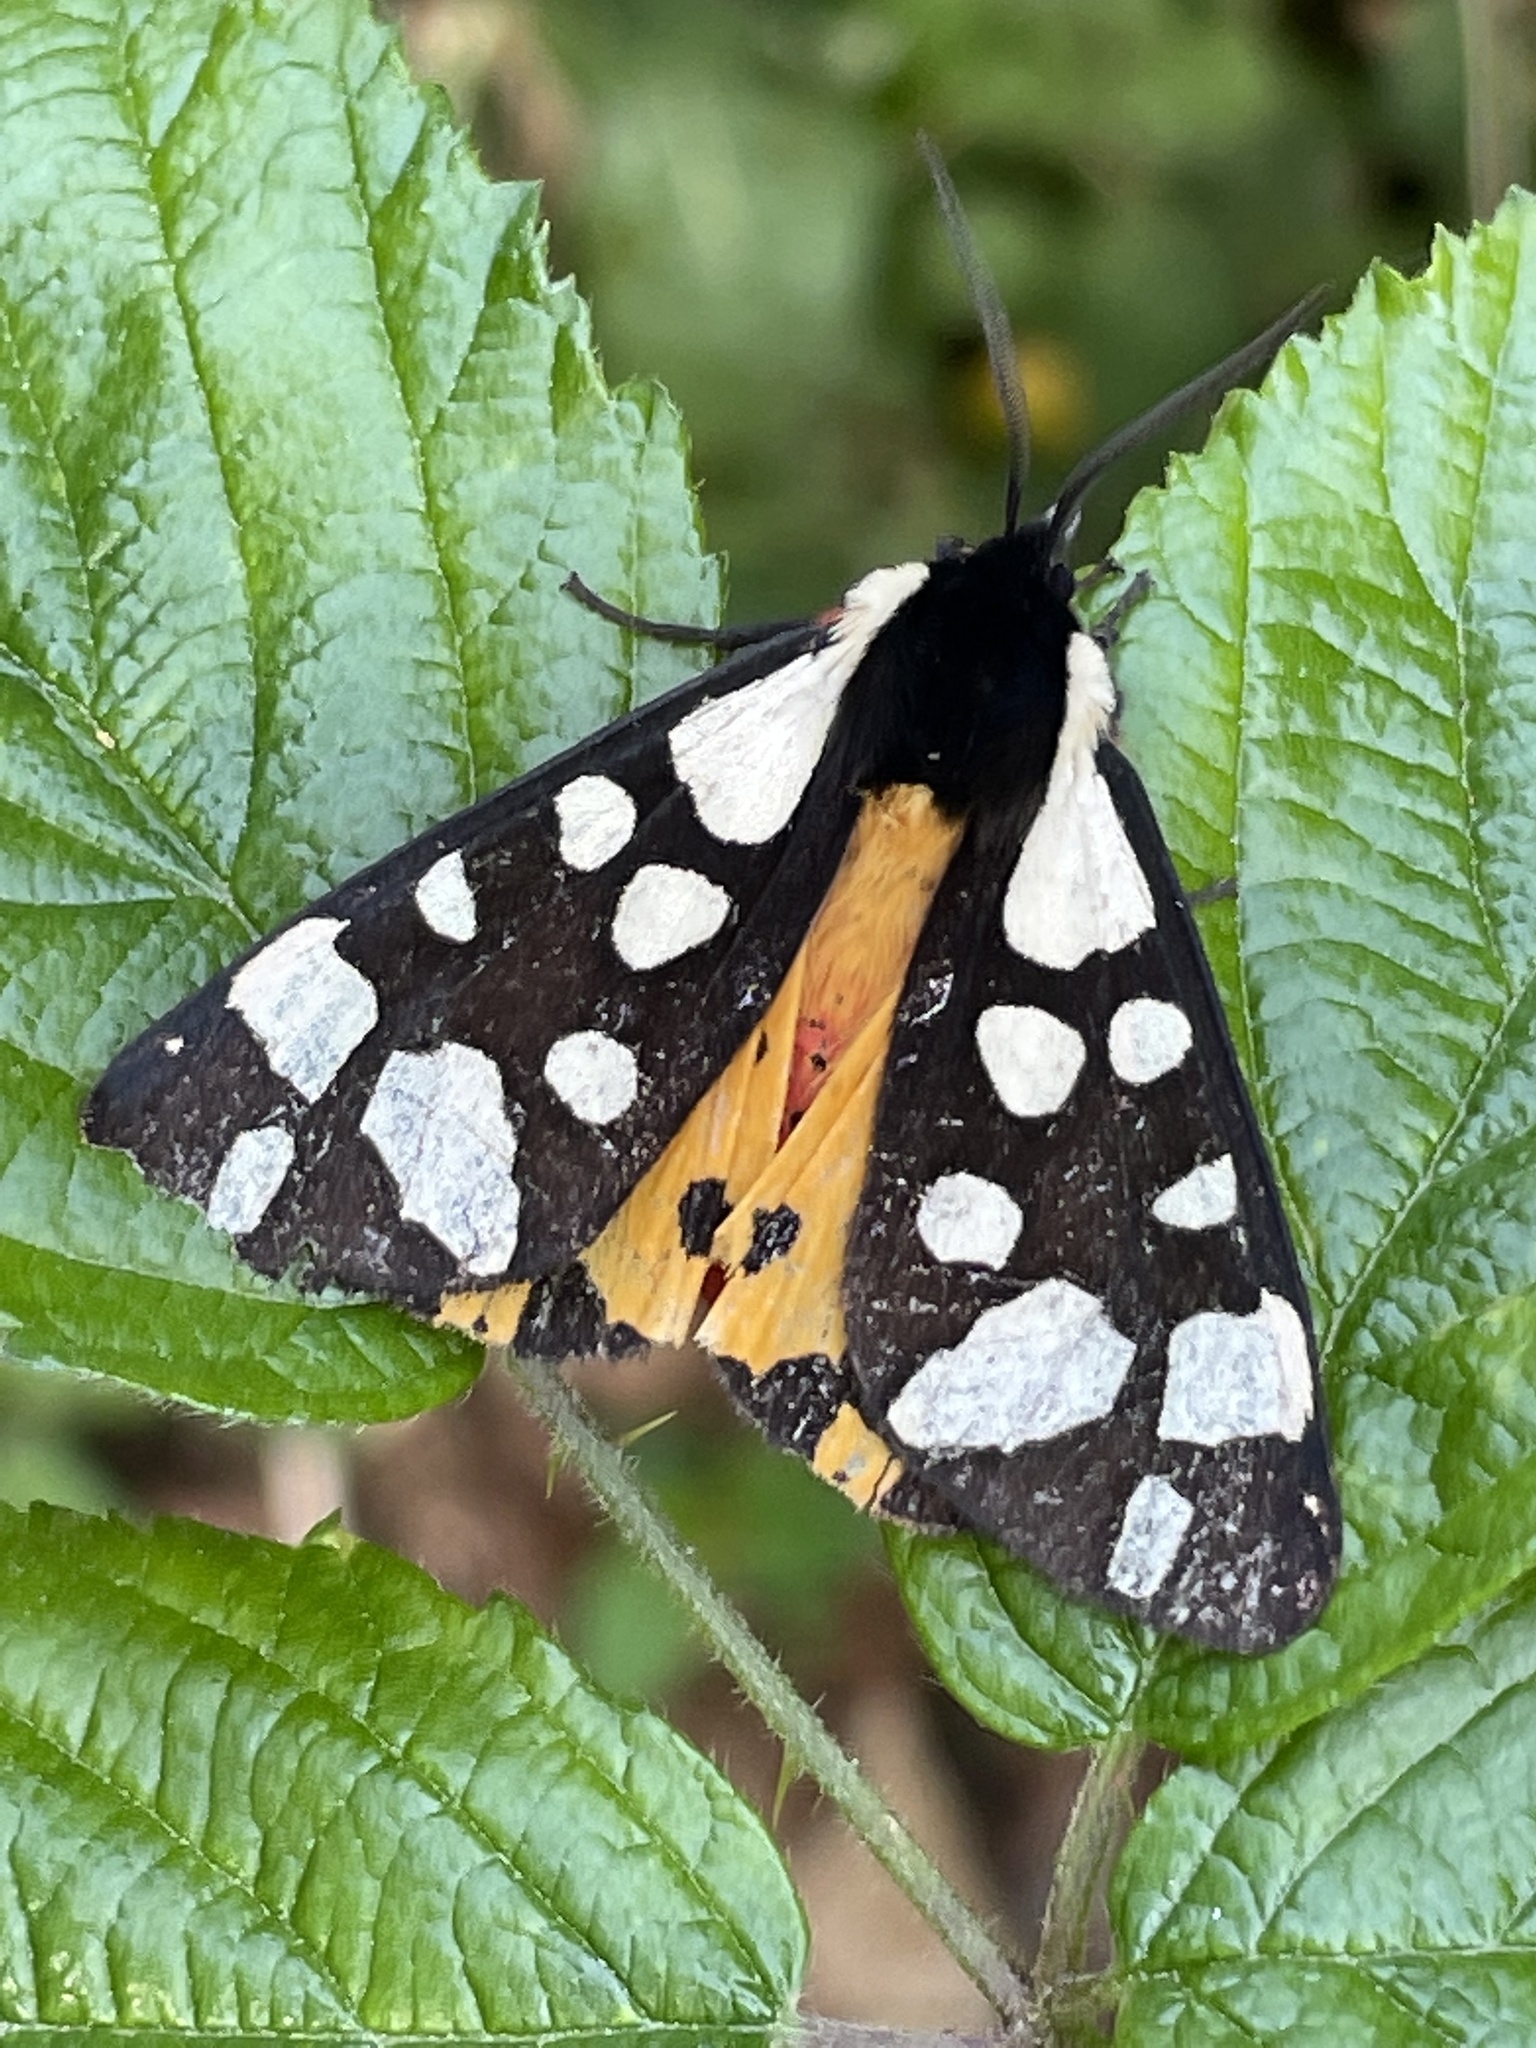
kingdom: Animalia
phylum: Arthropoda
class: Insecta
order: Lepidoptera
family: Erebidae
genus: Epicallia
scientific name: Epicallia villica
